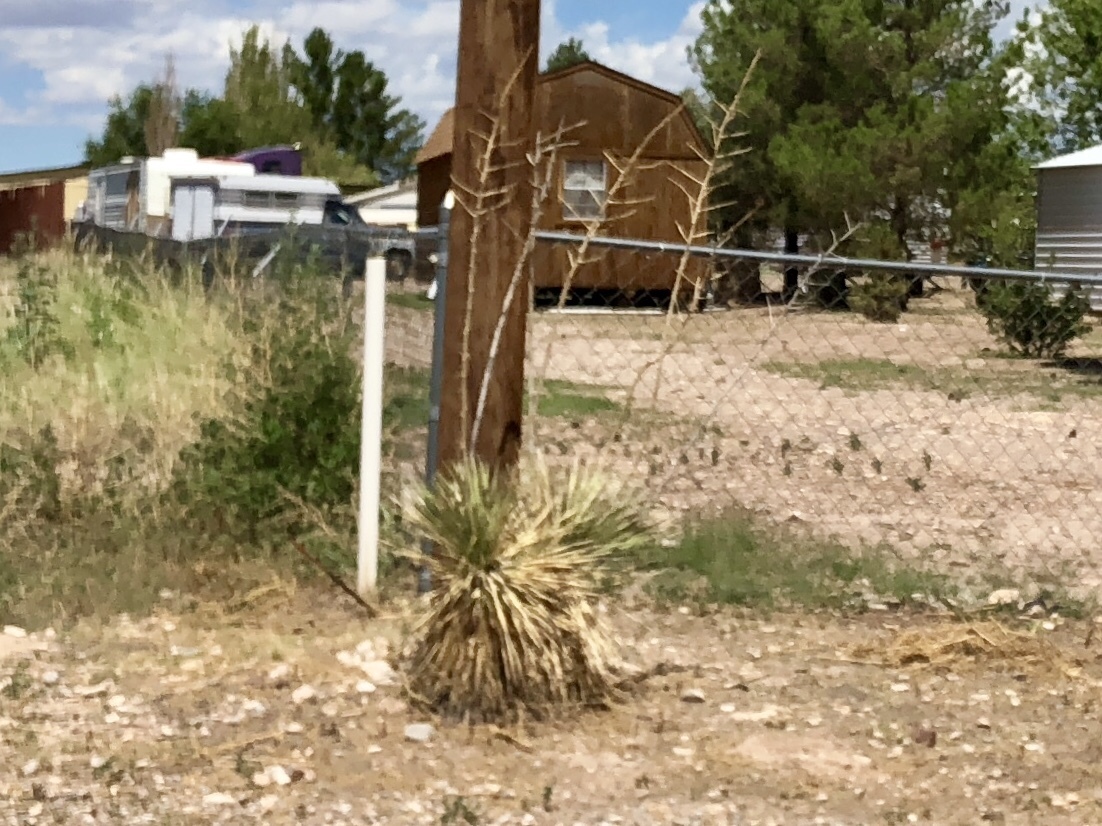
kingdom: Plantae
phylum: Tracheophyta
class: Liliopsida
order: Asparagales
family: Asparagaceae
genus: Yucca
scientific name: Yucca elata
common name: Palmella
